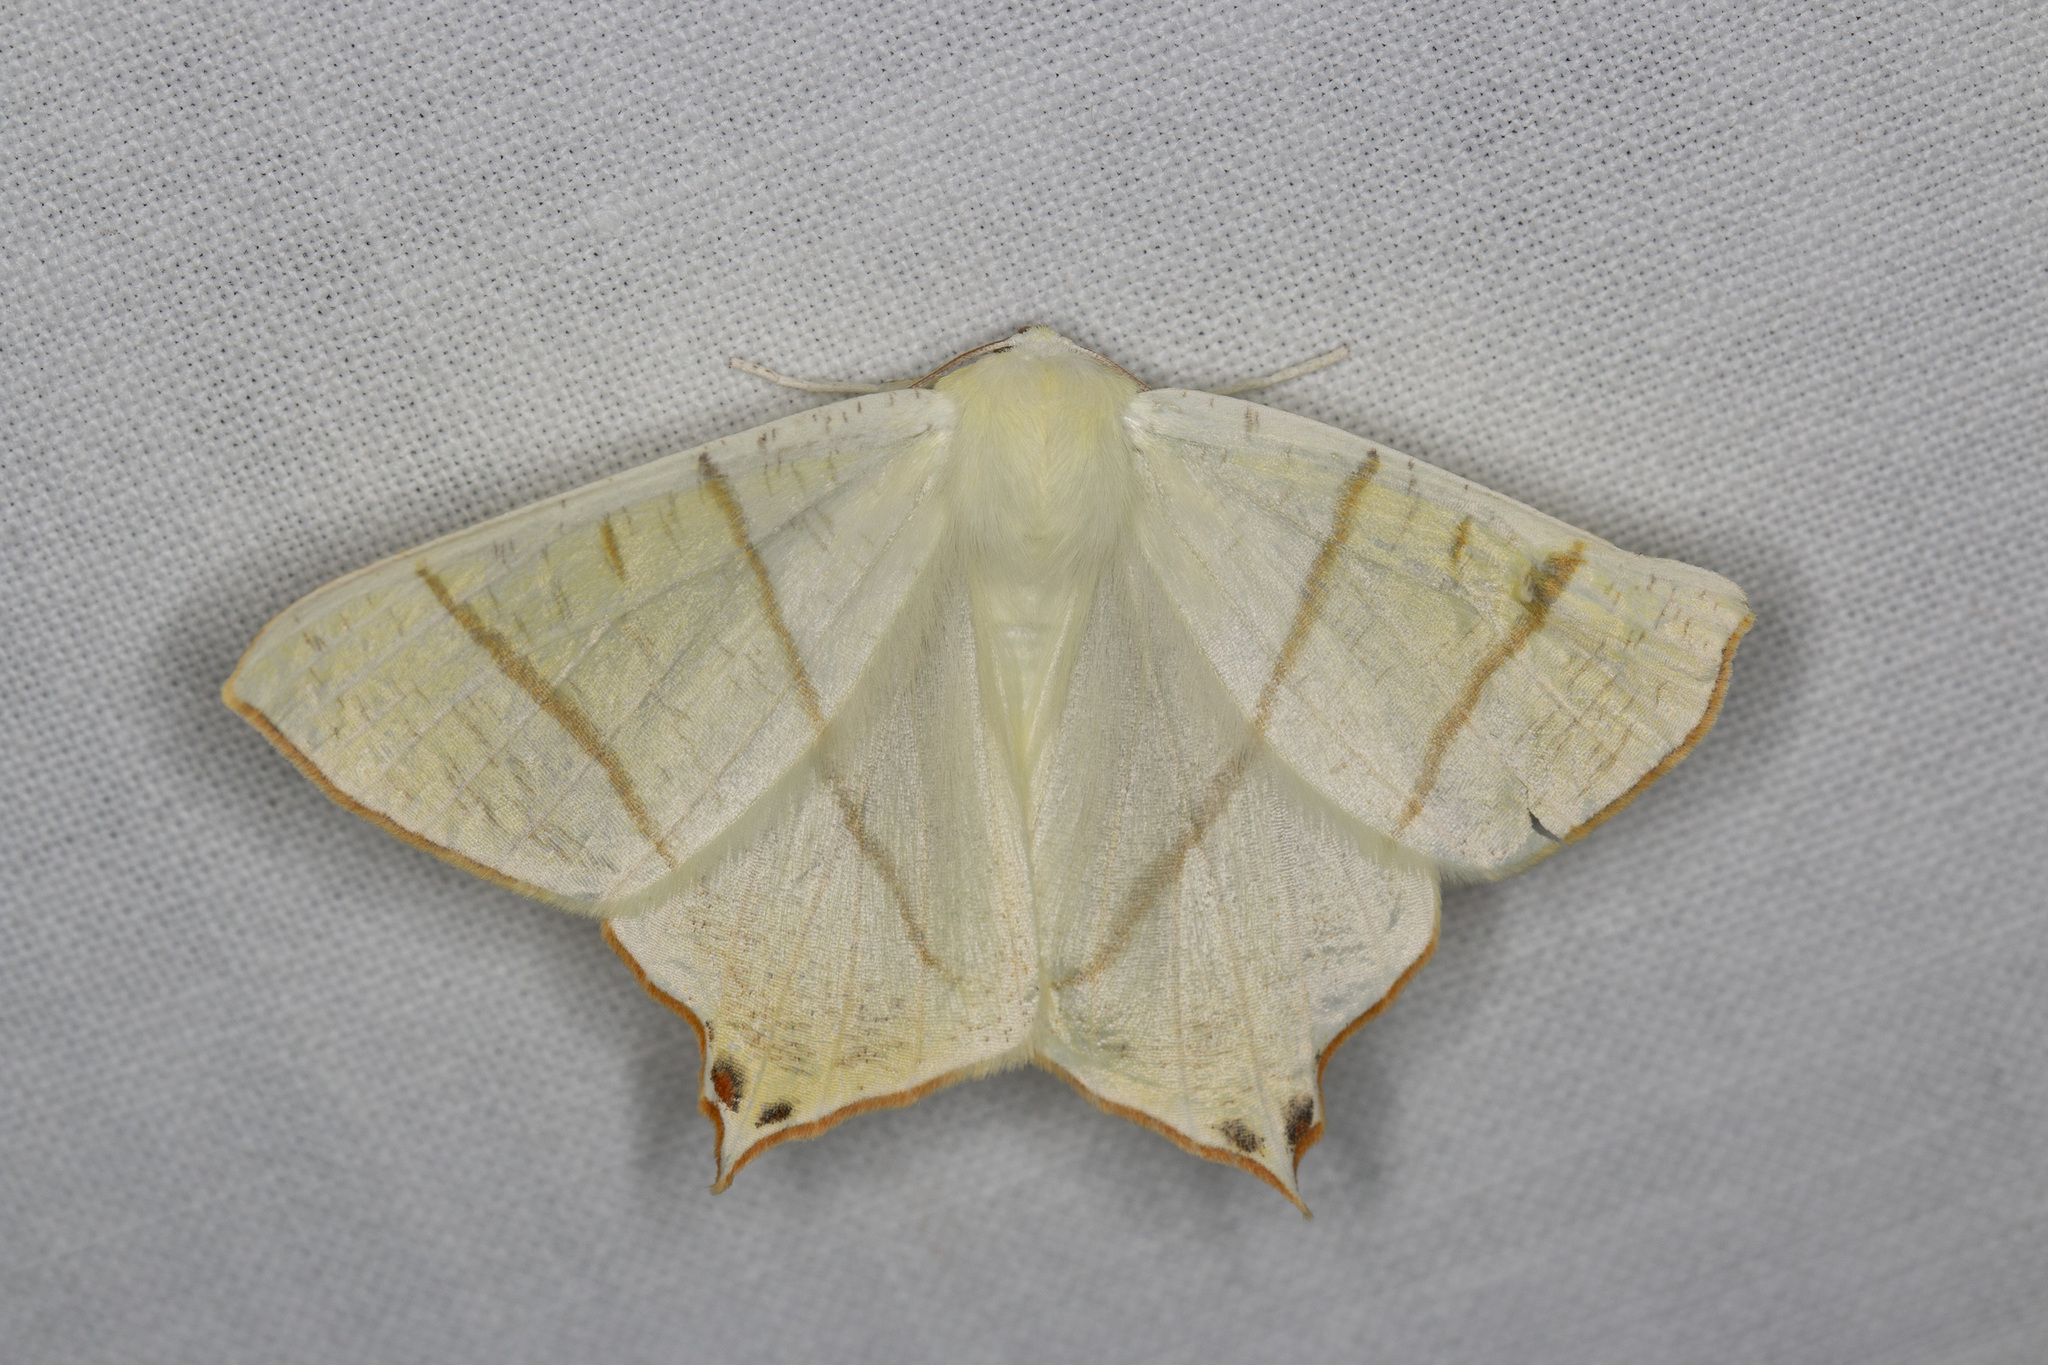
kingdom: Animalia
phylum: Arthropoda
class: Insecta
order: Lepidoptera
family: Geometridae
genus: Ourapteryx
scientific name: Ourapteryx sambucaria
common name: Swallow-tailed moth
